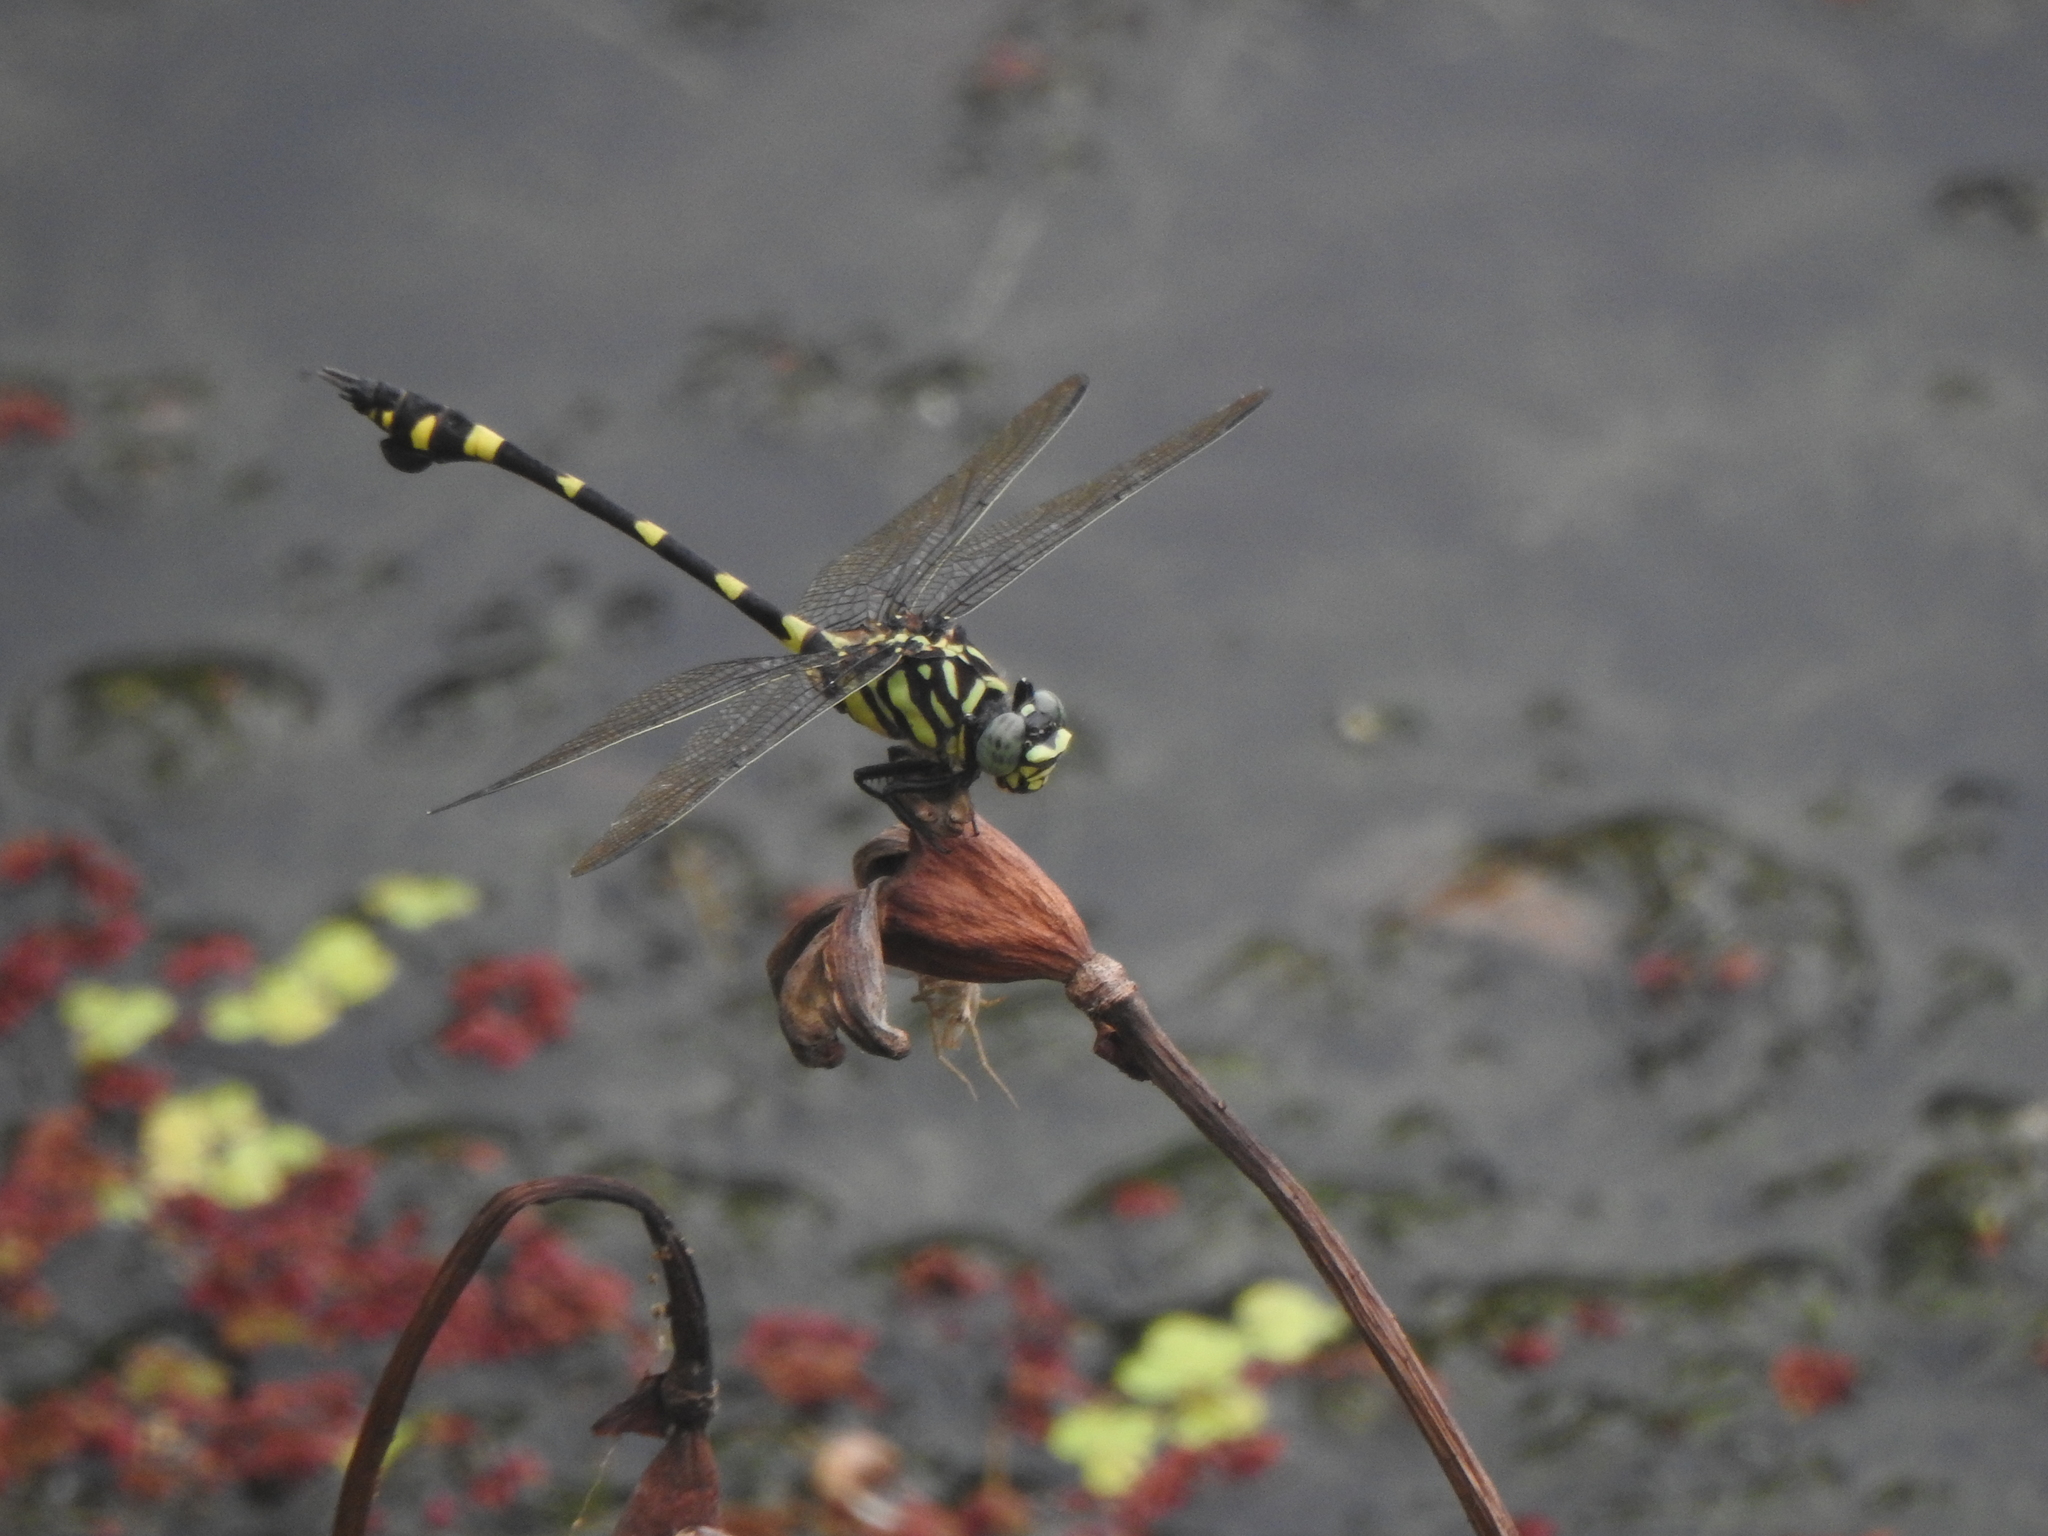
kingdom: Animalia
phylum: Arthropoda
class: Insecta
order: Odonata
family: Gomphidae
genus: Ictinogomphus
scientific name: Ictinogomphus rapax
